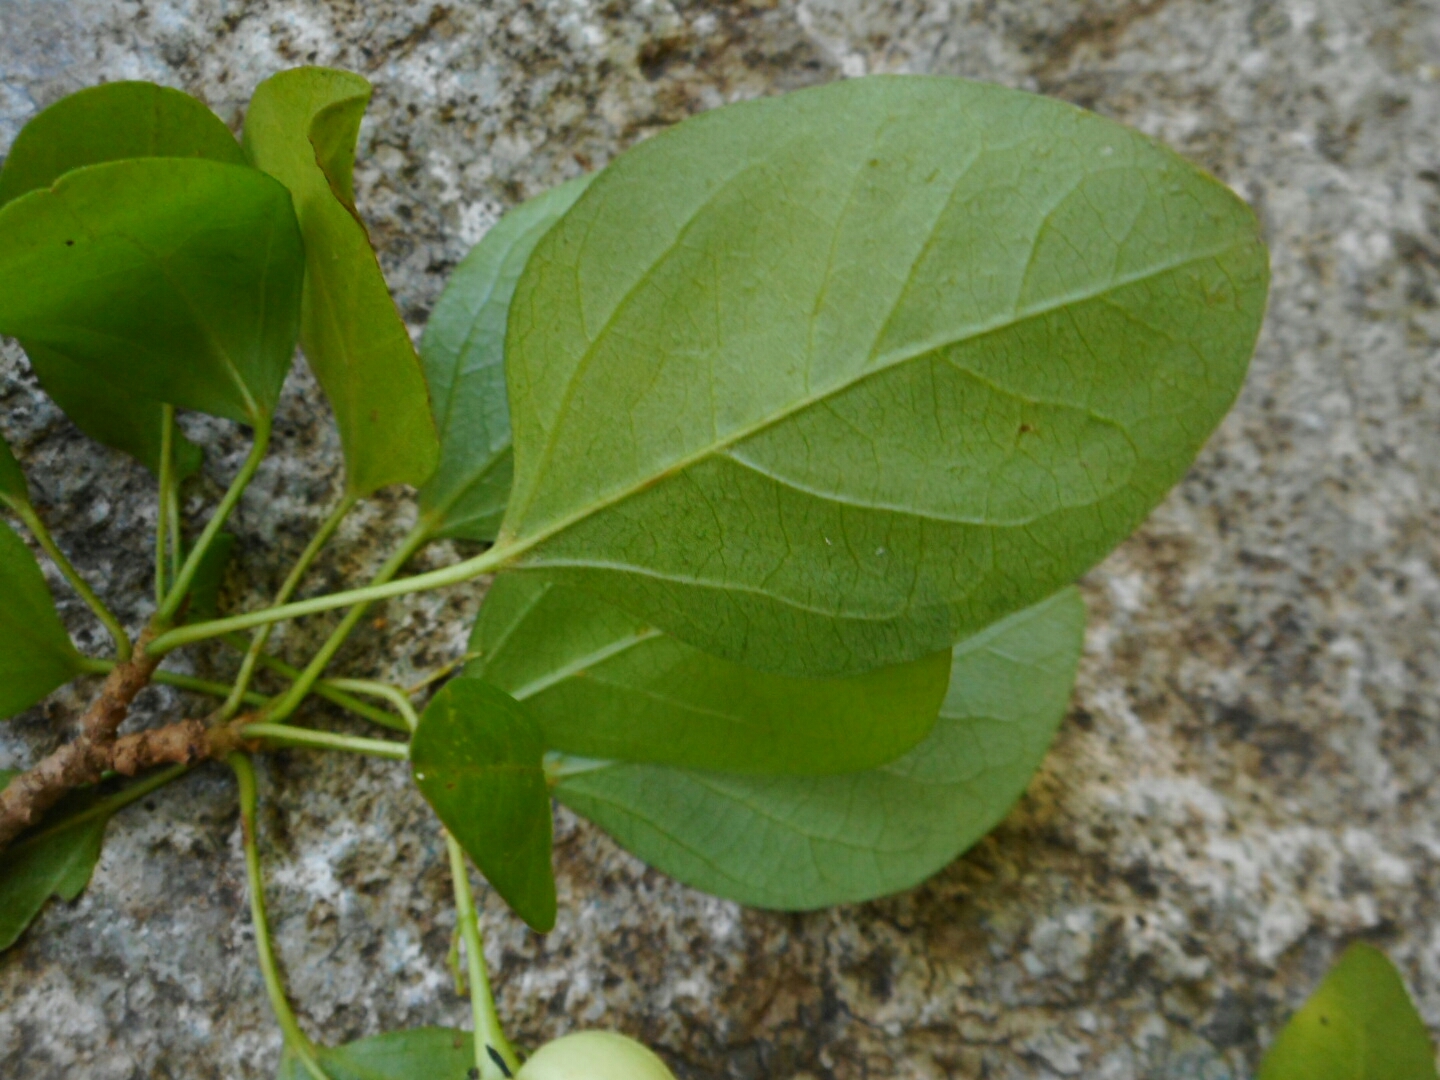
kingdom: Plantae
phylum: Tracheophyta
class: Magnoliopsida
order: Malpighiales
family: Euphorbiaceae
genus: Trigonostemon
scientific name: Trigonostemon fragilis
